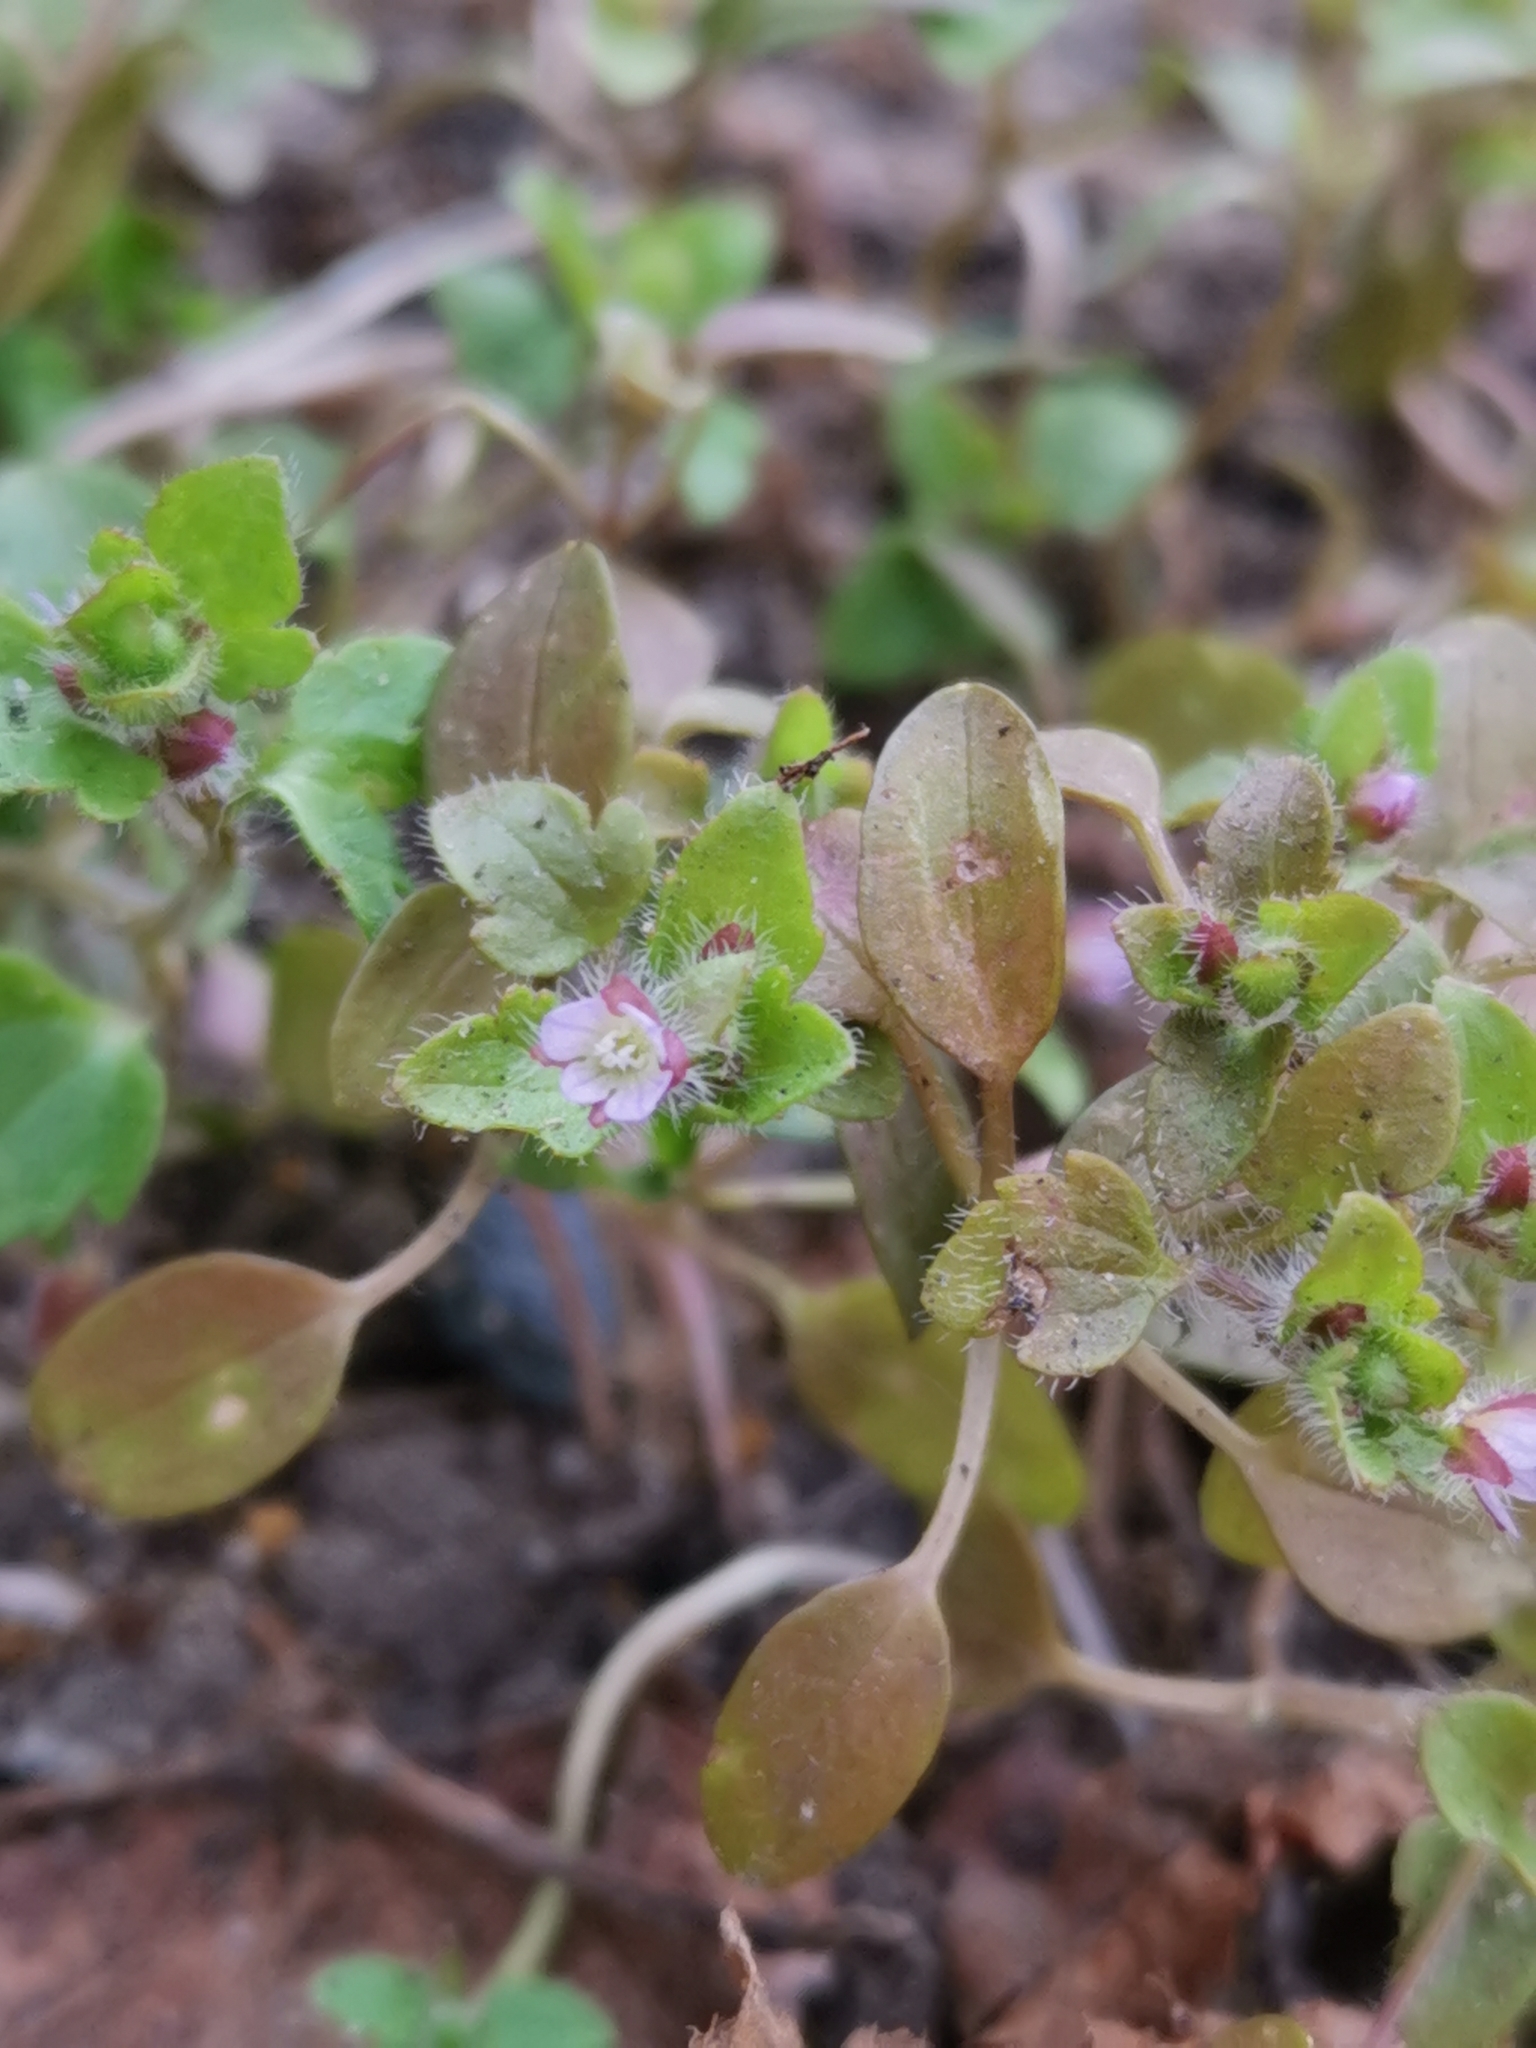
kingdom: Plantae
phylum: Tracheophyta
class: Magnoliopsida
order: Lamiales
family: Plantaginaceae
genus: Veronica
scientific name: Veronica sublobata
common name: False ivy-leaved speedwell
